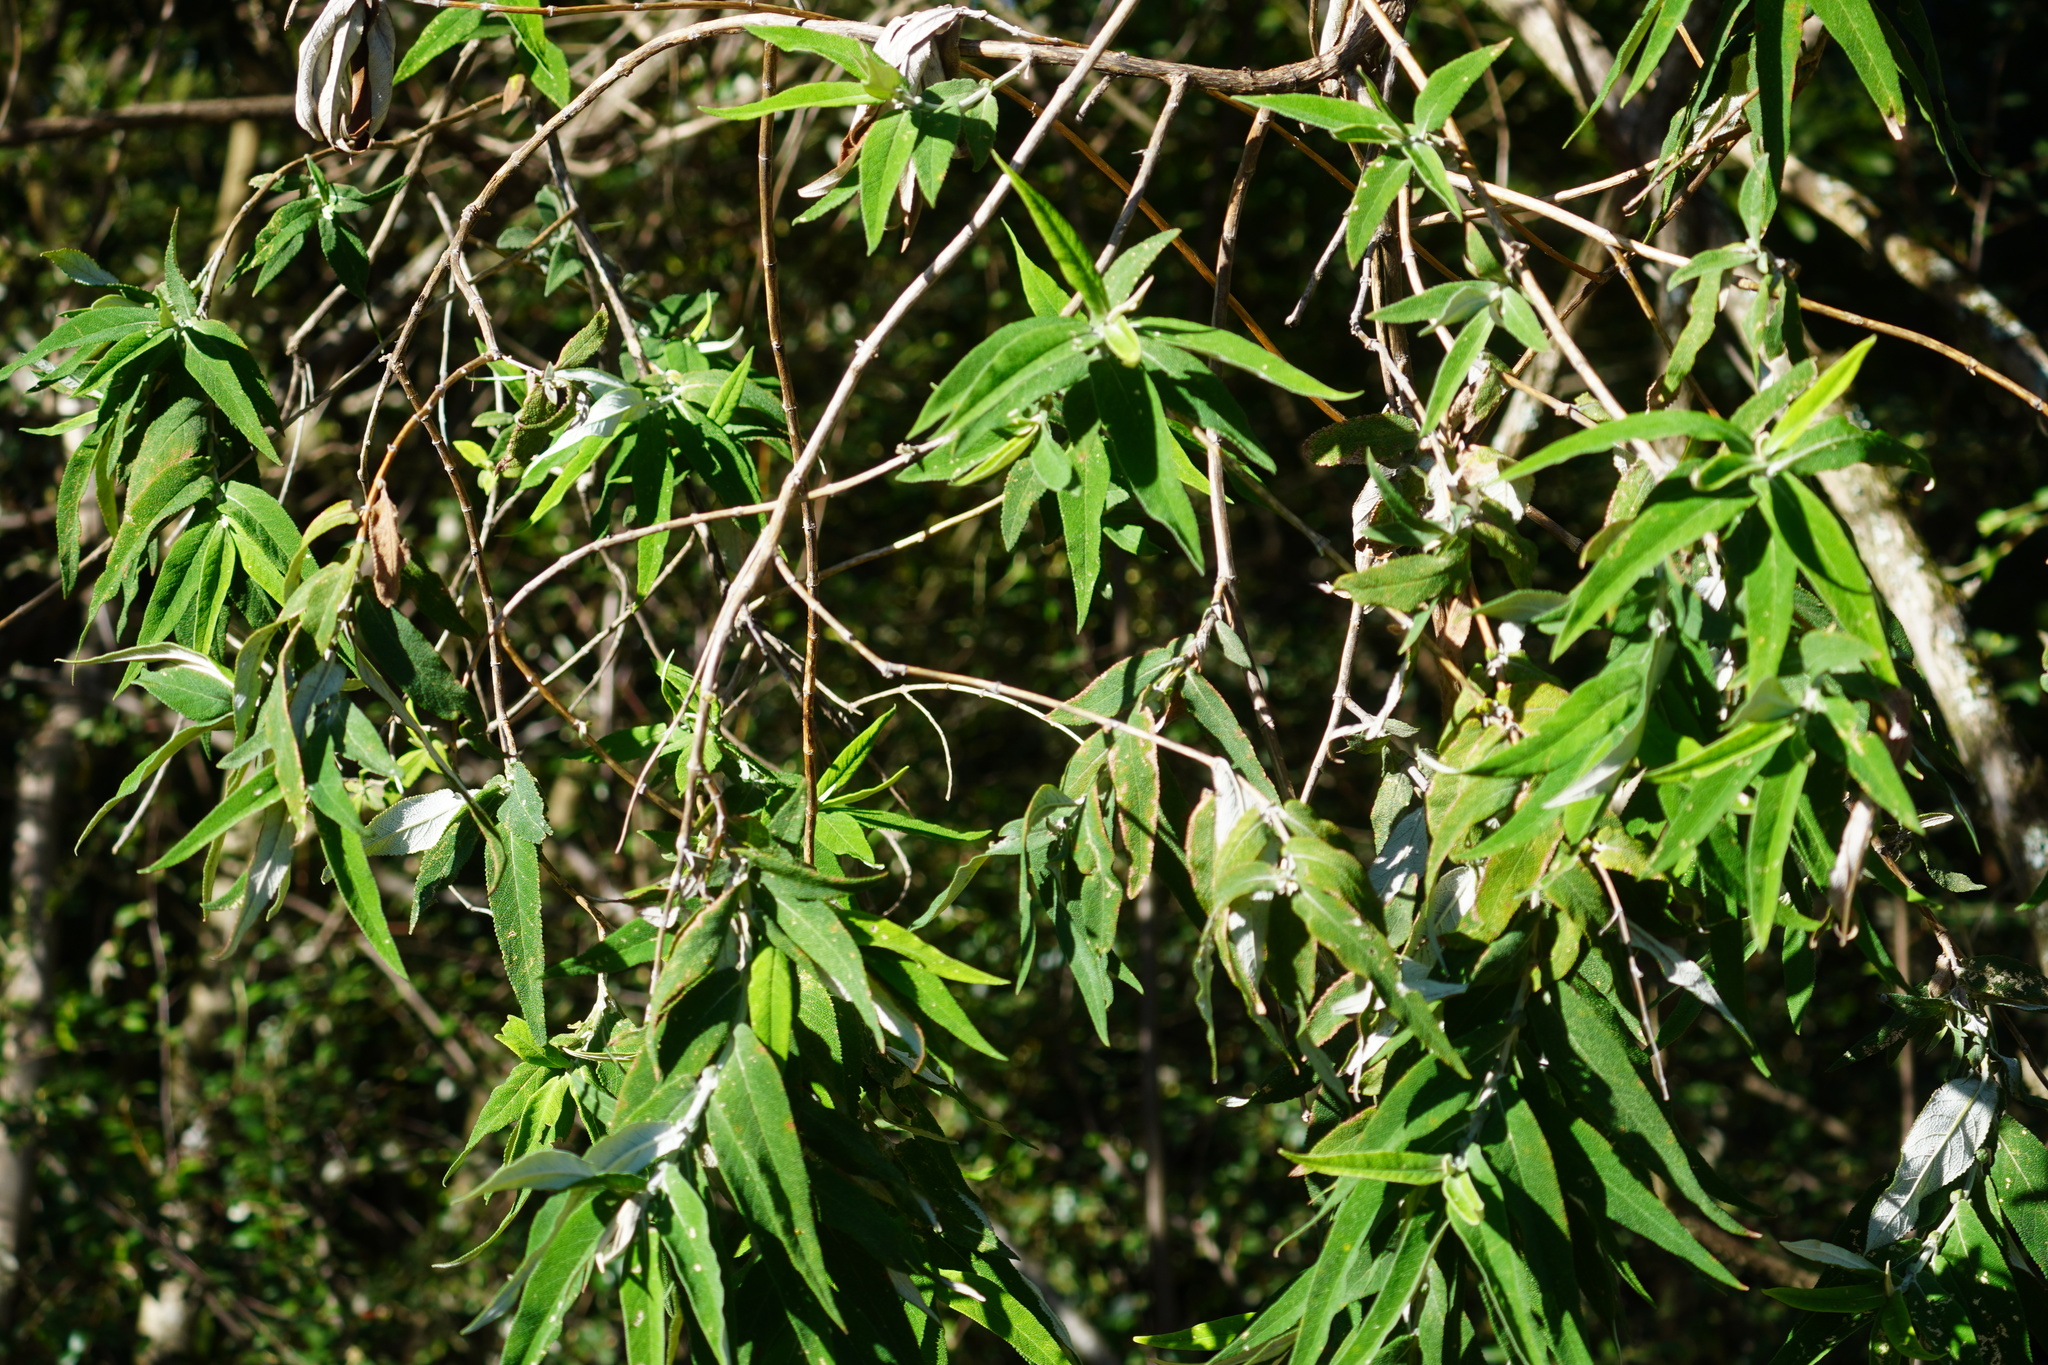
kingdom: Plantae
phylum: Tracheophyta
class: Magnoliopsida
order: Lamiales
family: Scrophulariaceae
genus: Buddleja
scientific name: Buddleja salviifolia
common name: Sagewood
